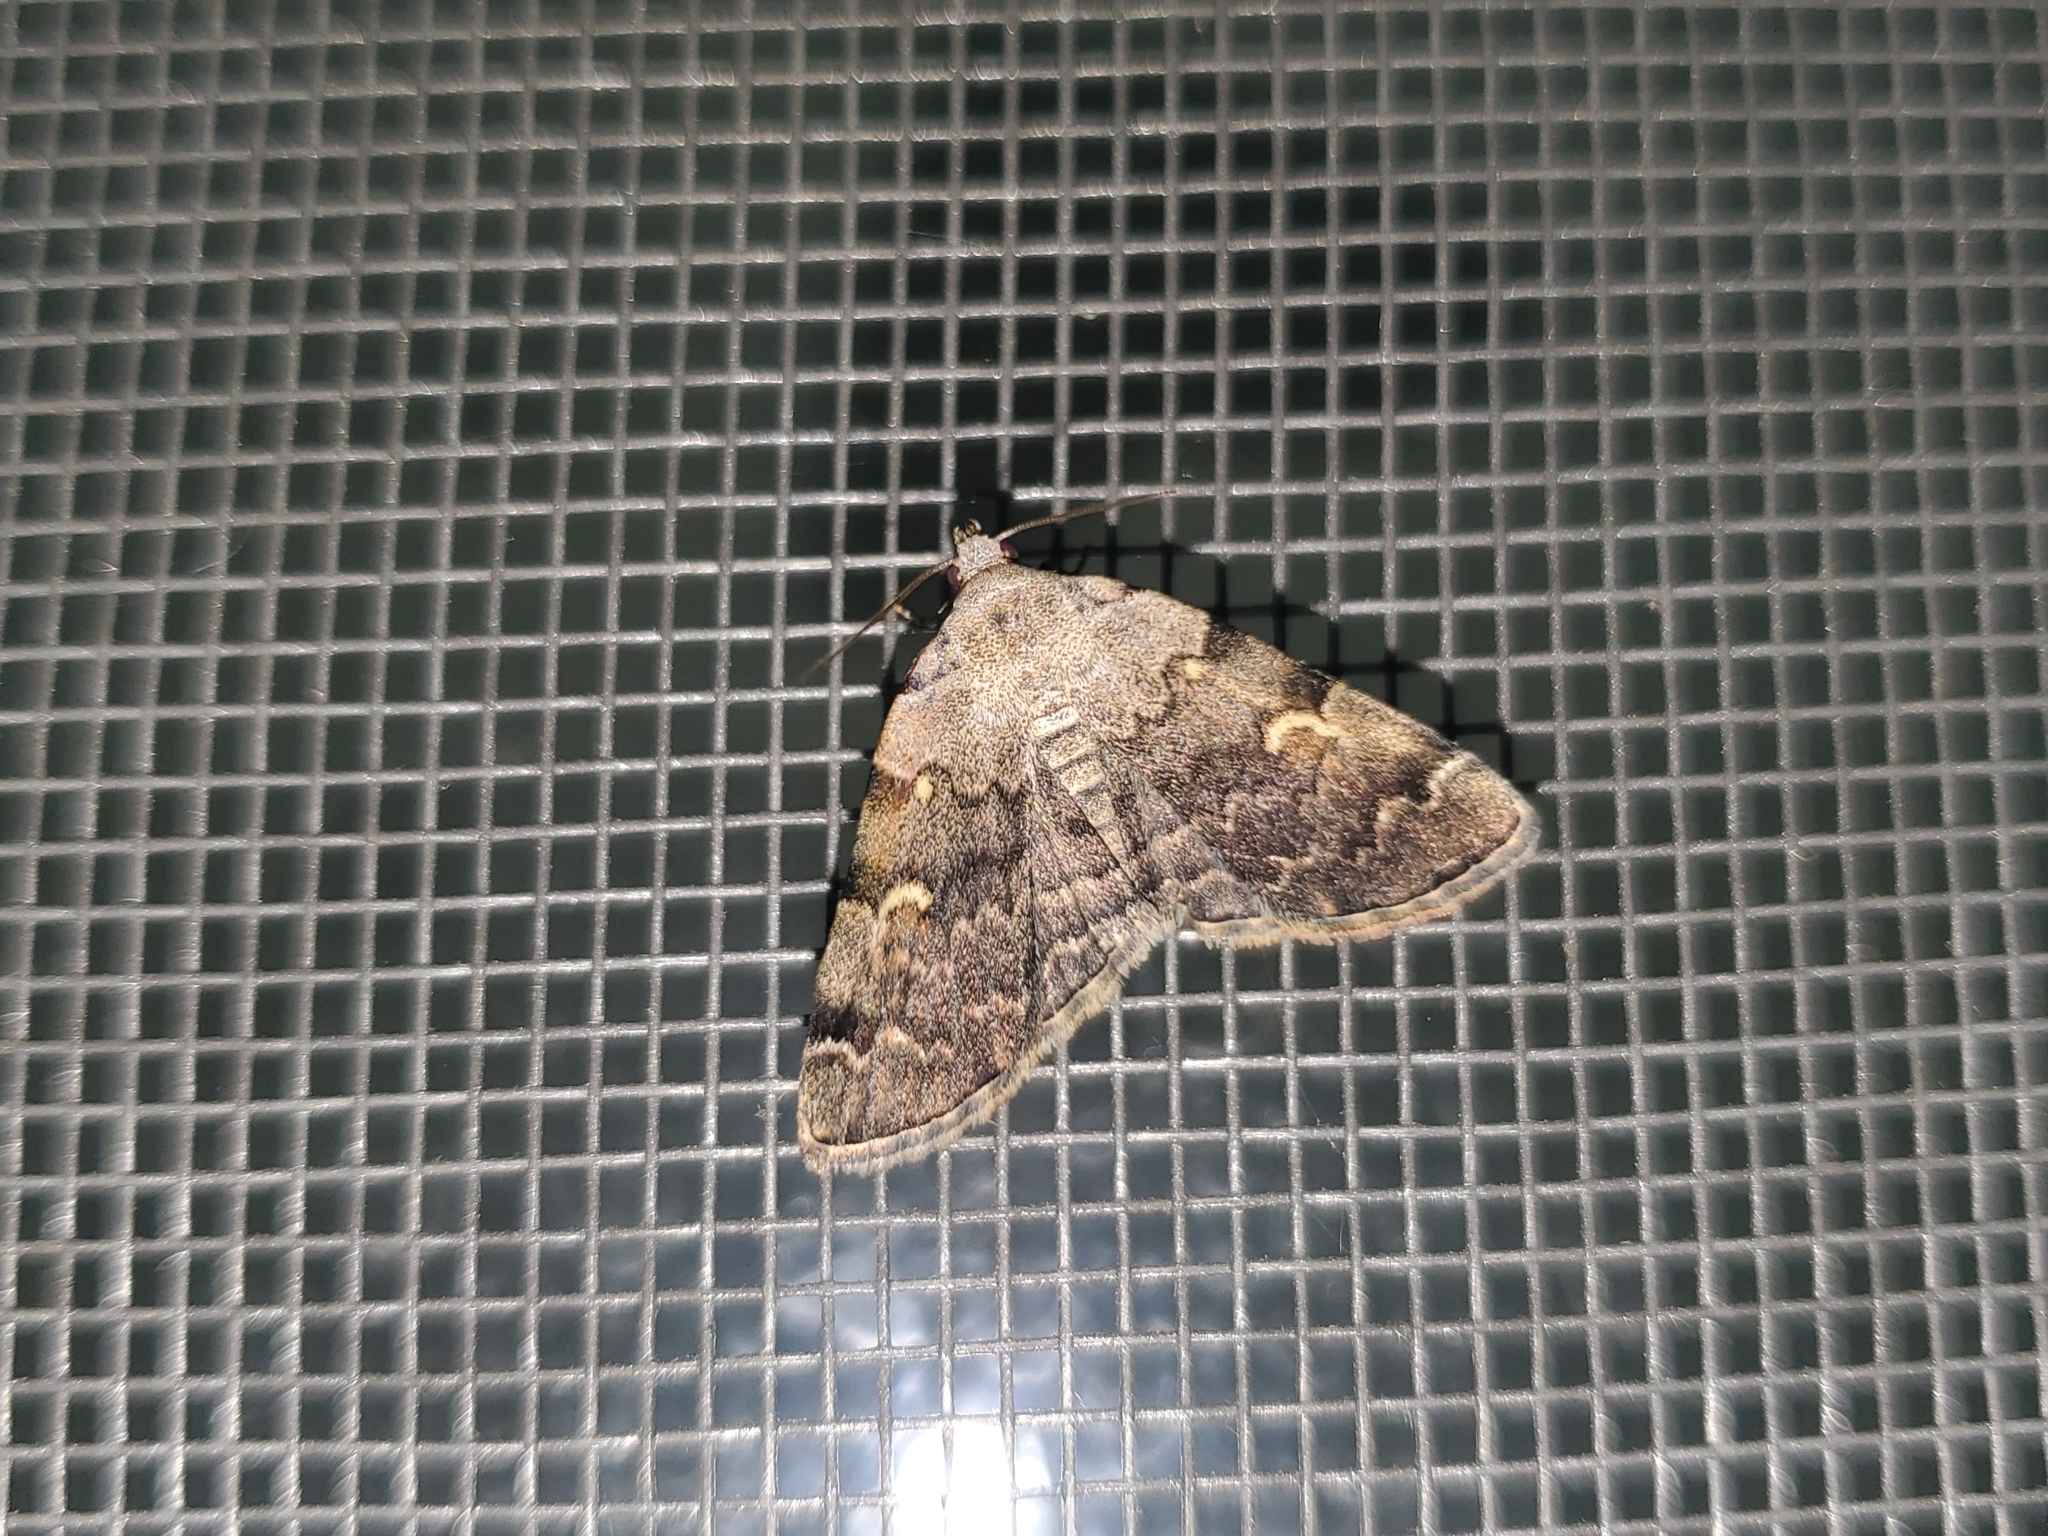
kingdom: Animalia
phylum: Arthropoda
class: Insecta
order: Lepidoptera
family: Erebidae
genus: Idia
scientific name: Idia americalis
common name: American idia moth
